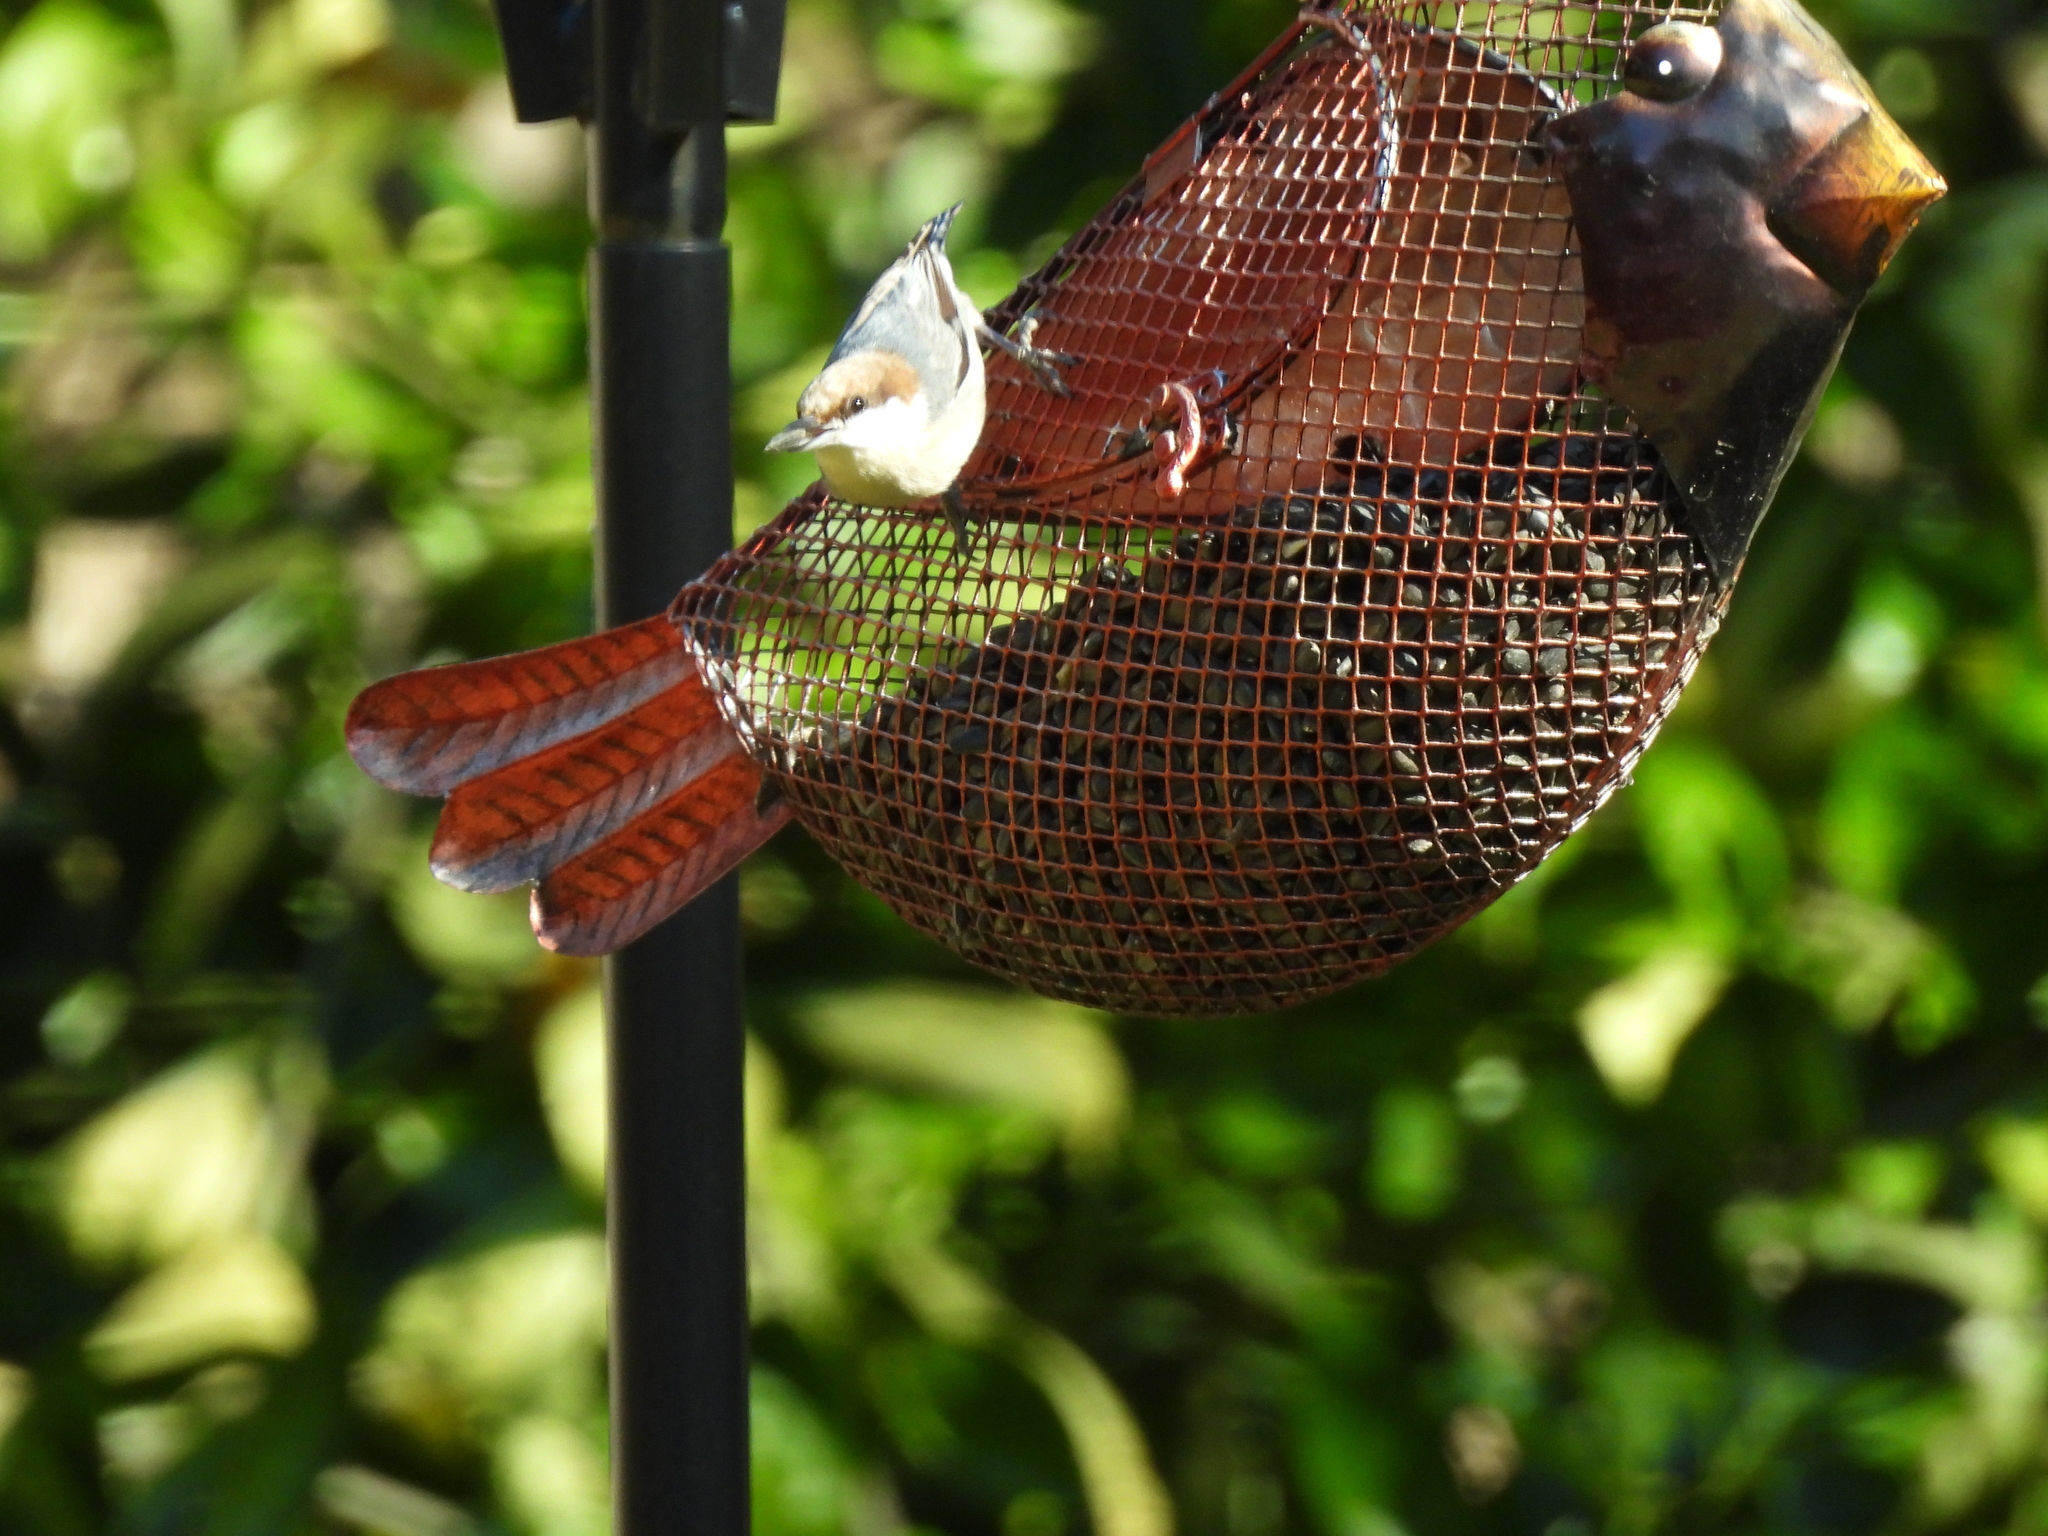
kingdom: Animalia
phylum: Chordata
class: Aves
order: Passeriformes
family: Sittidae
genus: Sitta
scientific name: Sitta pusilla
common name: Brown-headed nuthatch
